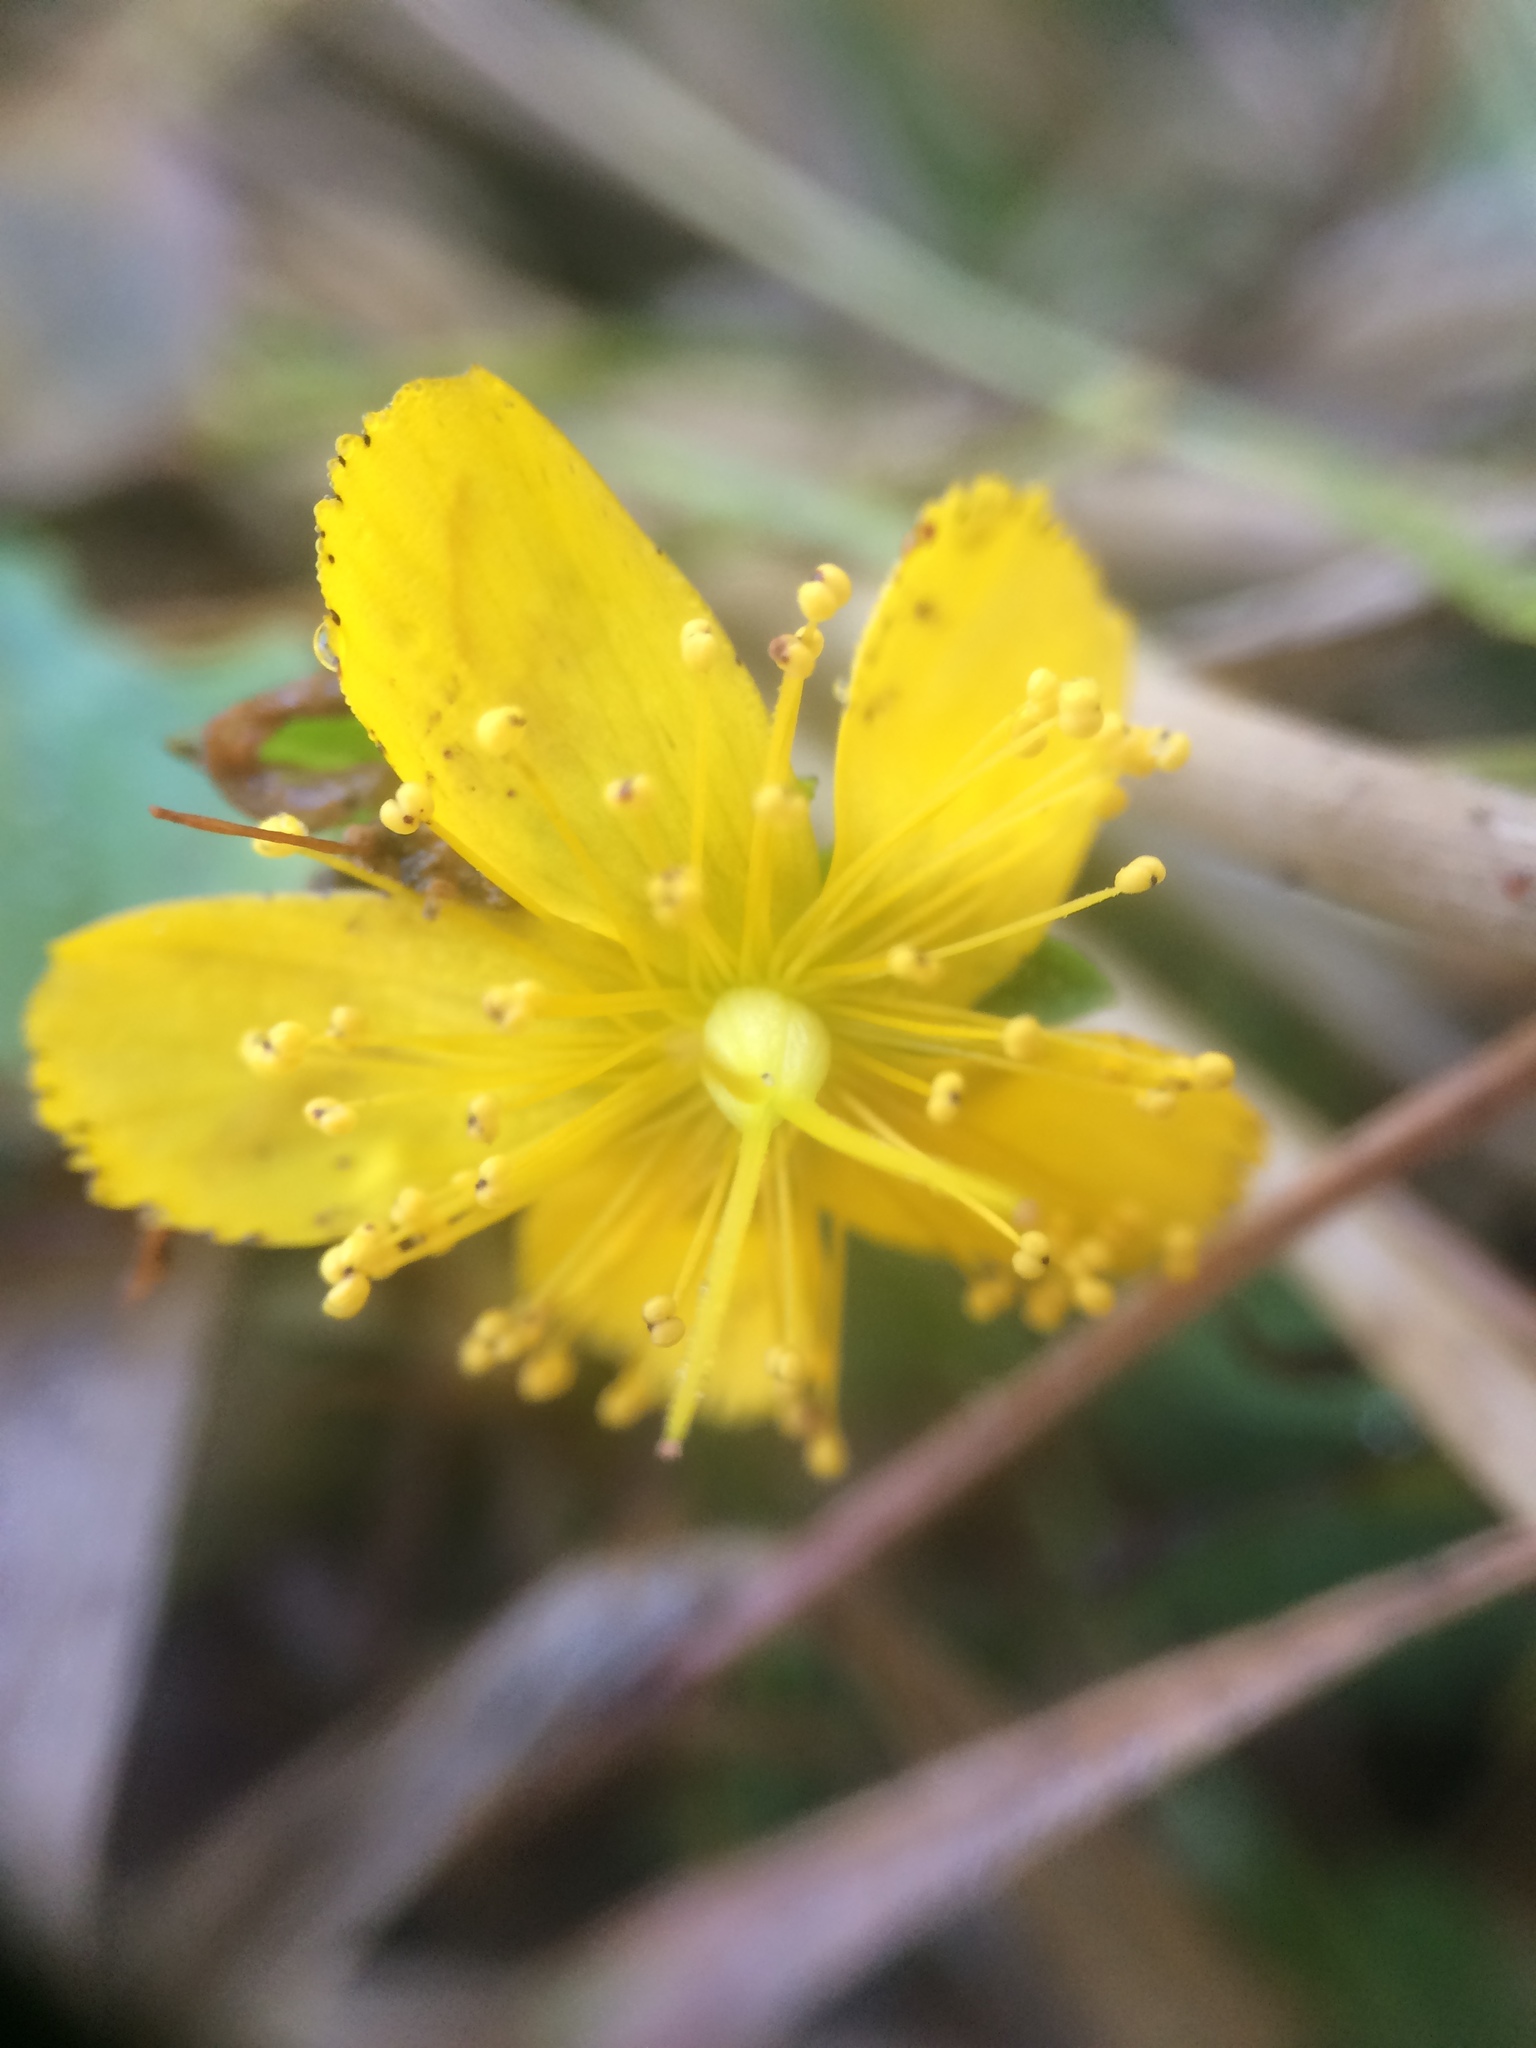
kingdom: Plantae
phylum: Tracheophyta
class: Magnoliopsida
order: Malpighiales
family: Hypericaceae
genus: Hypericum
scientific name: Hypericum perforatum
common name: Common st. johnswort
